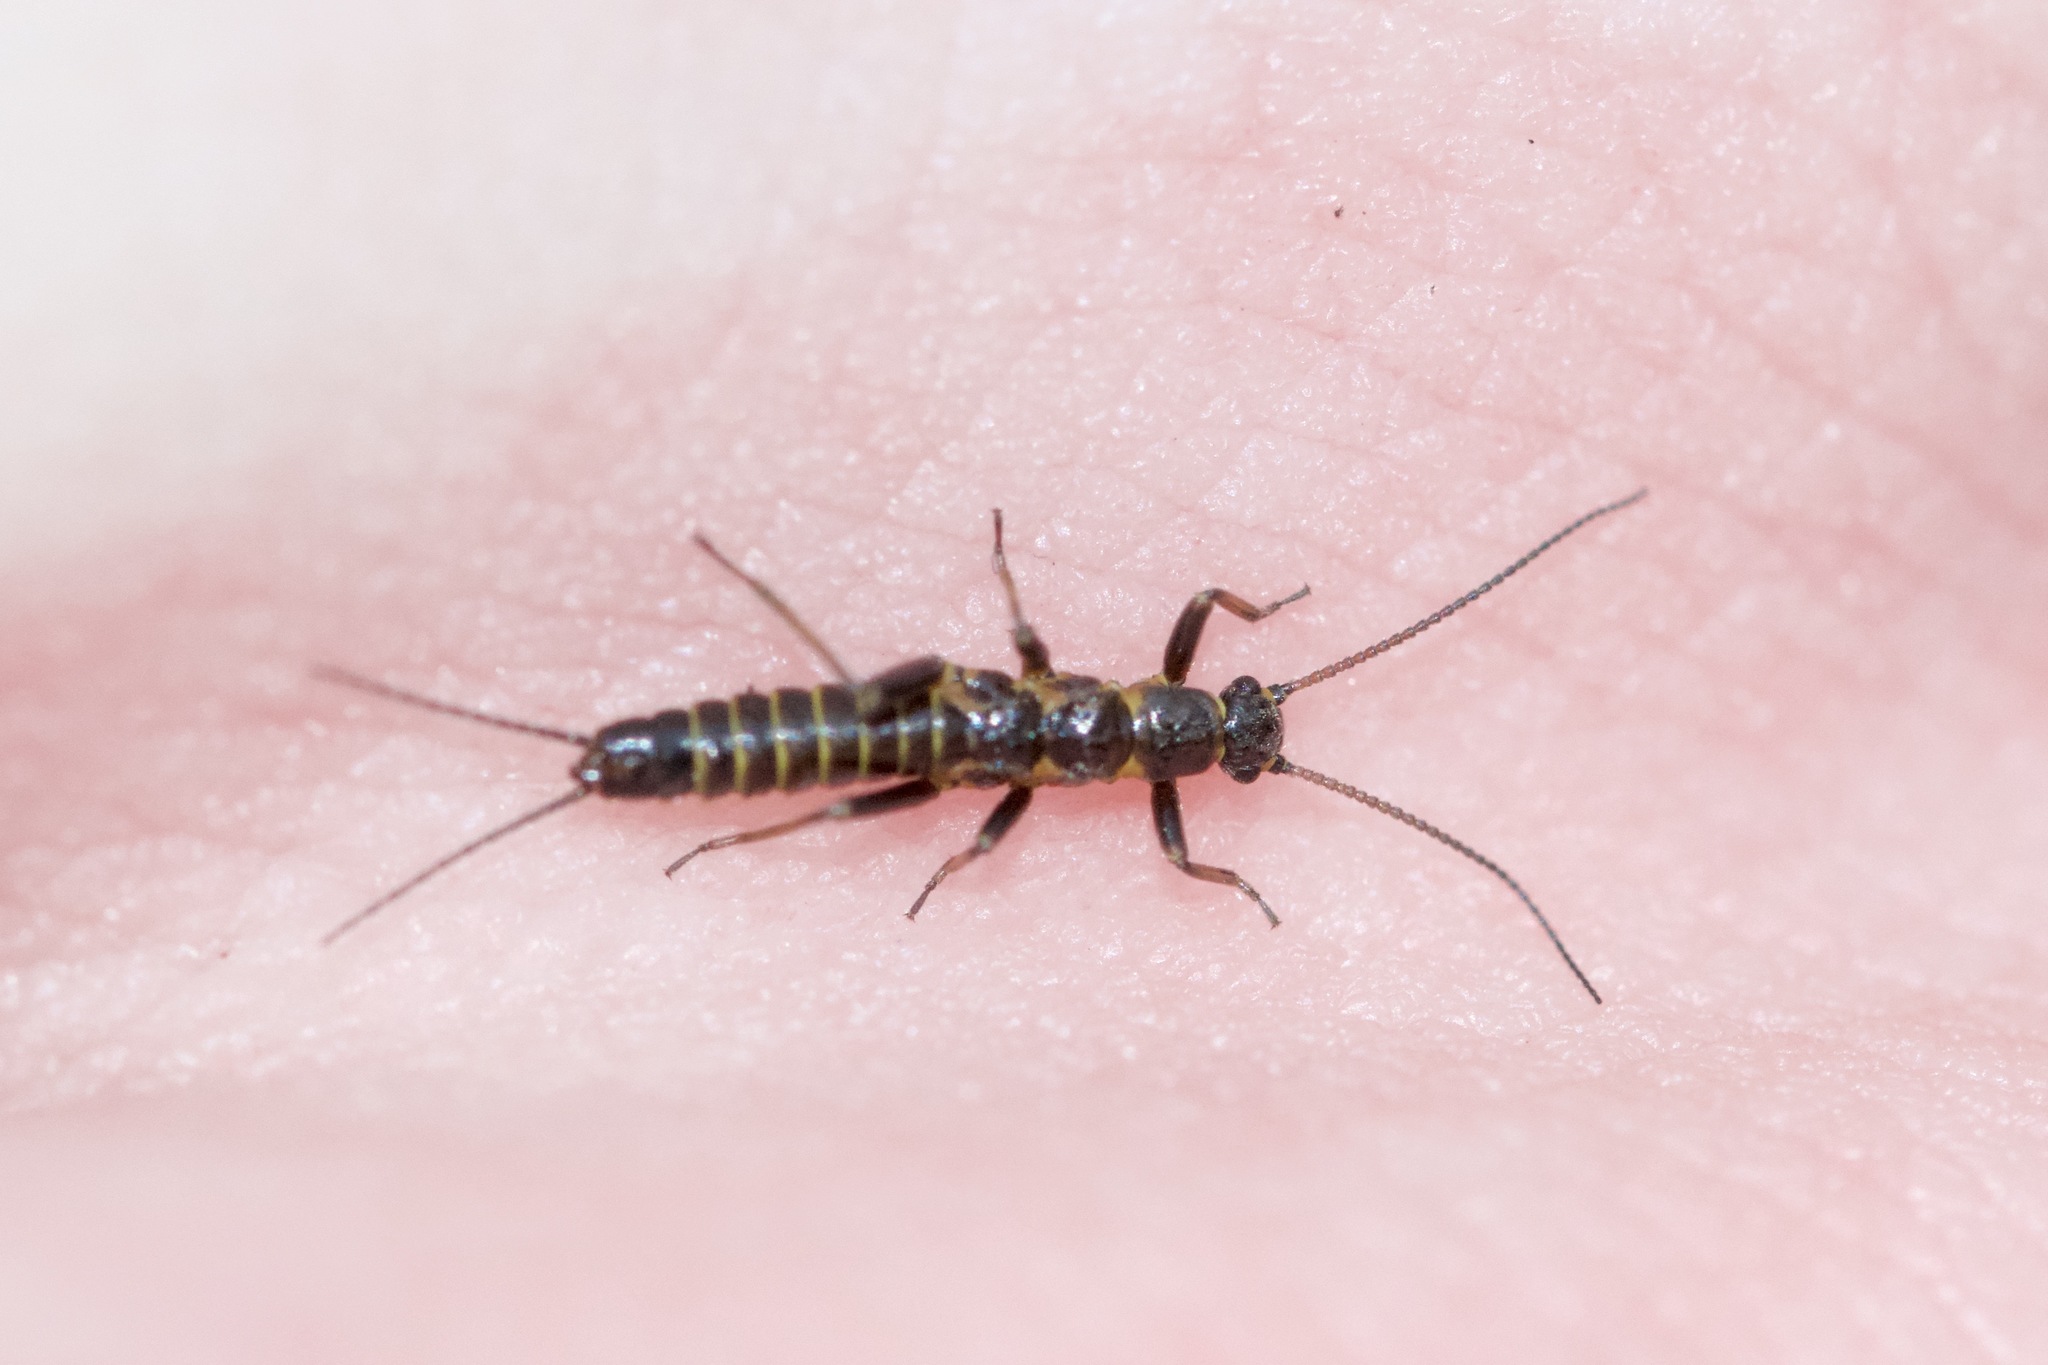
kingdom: Animalia
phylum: Arthropoda
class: Insecta
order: Plecoptera
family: Capniidae
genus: Allocapnia
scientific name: Allocapnia vivipara
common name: Shortwing snowfly
